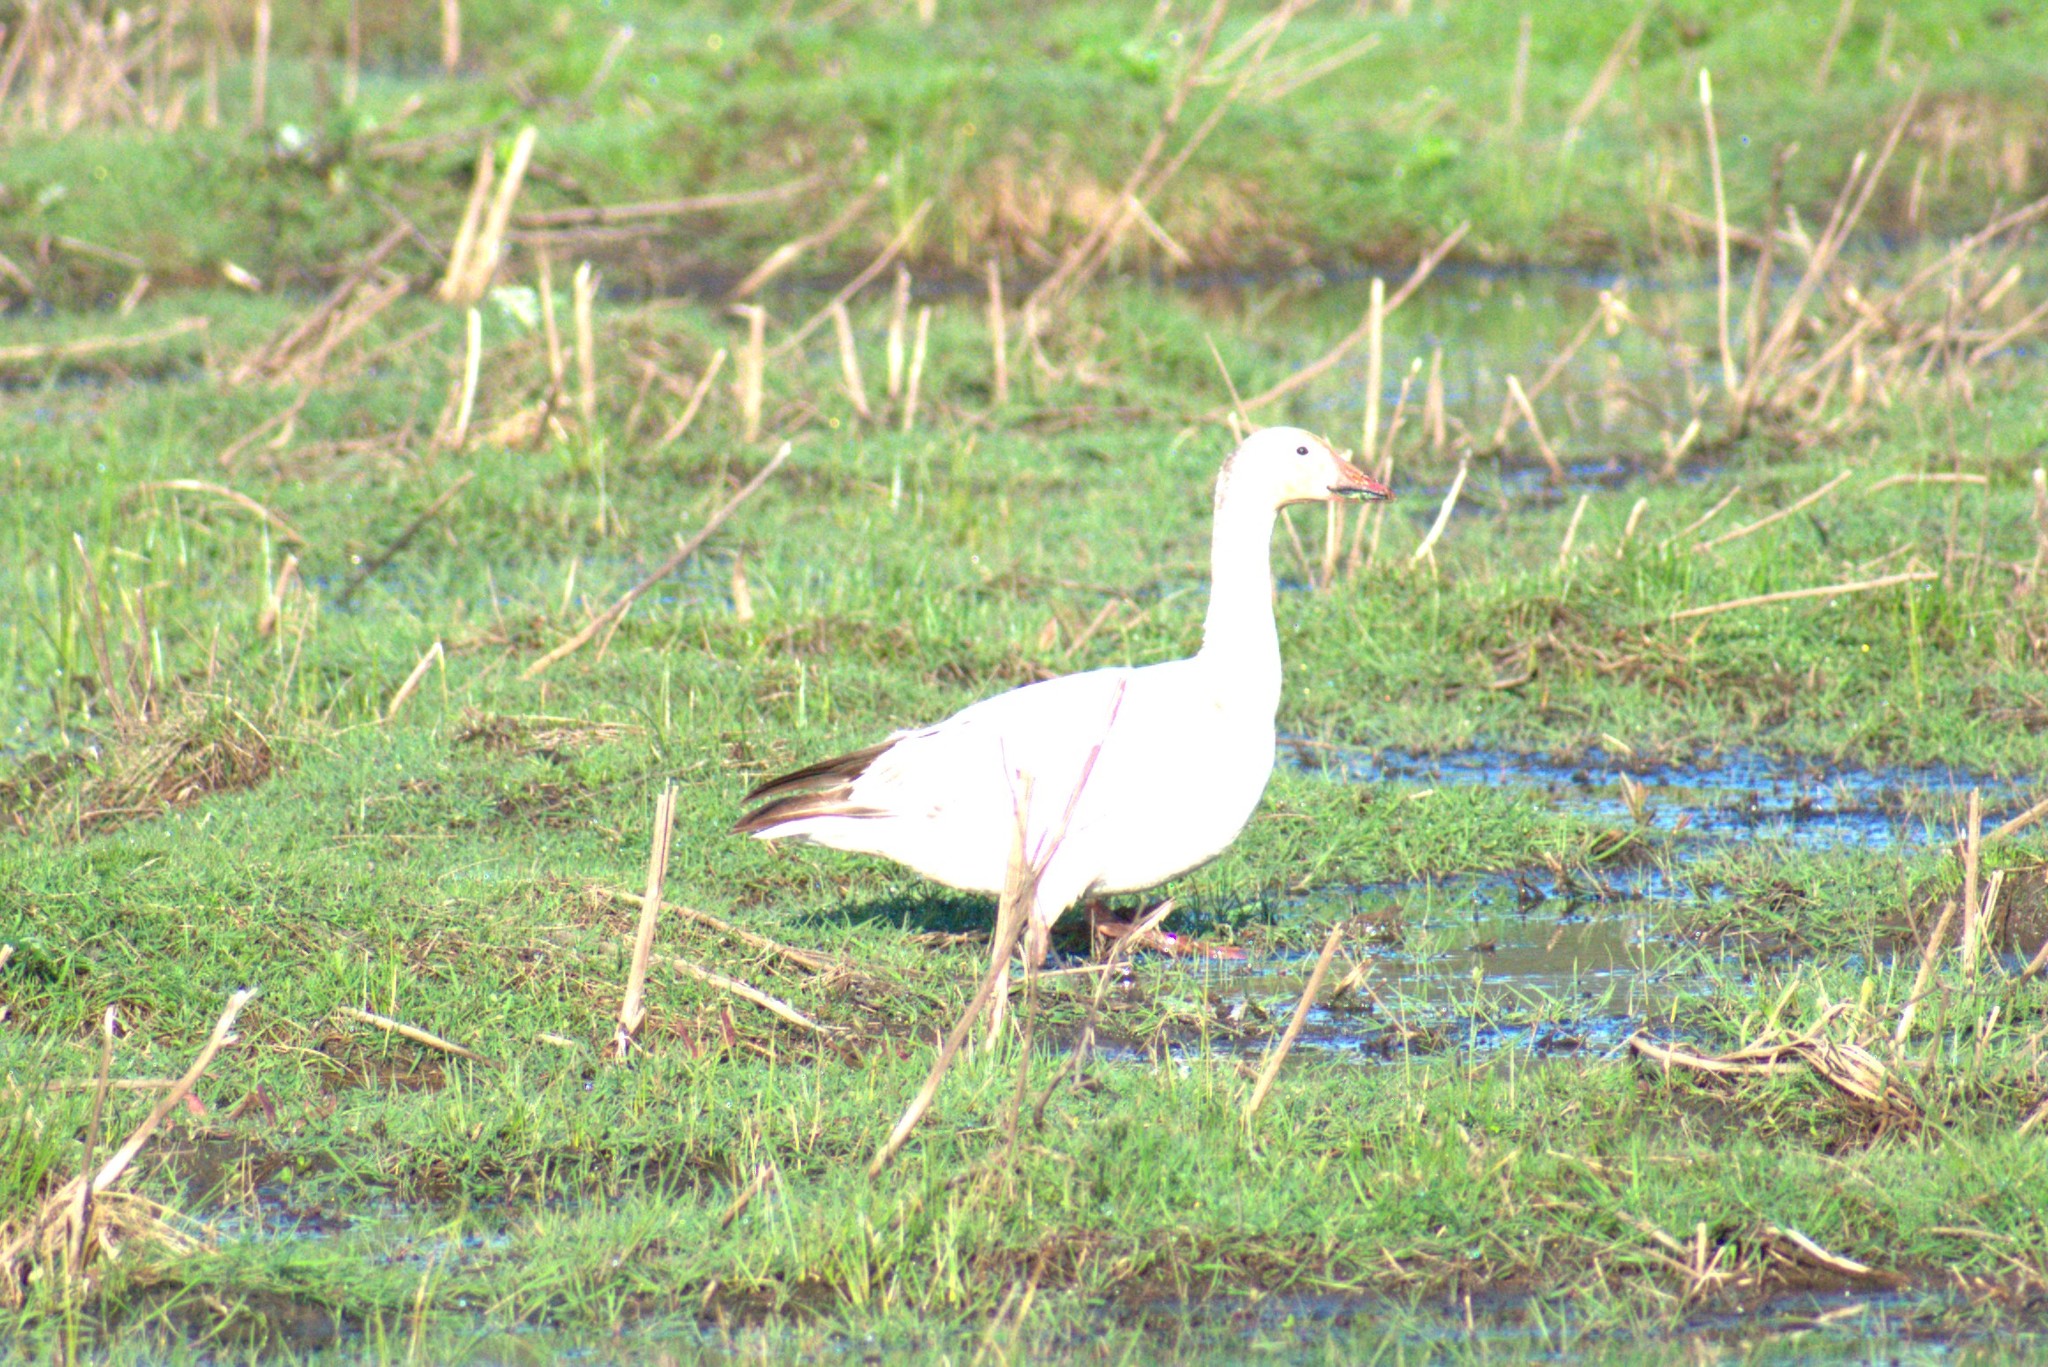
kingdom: Animalia
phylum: Chordata
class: Aves
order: Anseriformes
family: Anatidae
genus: Anser
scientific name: Anser caerulescens
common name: Snow goose
